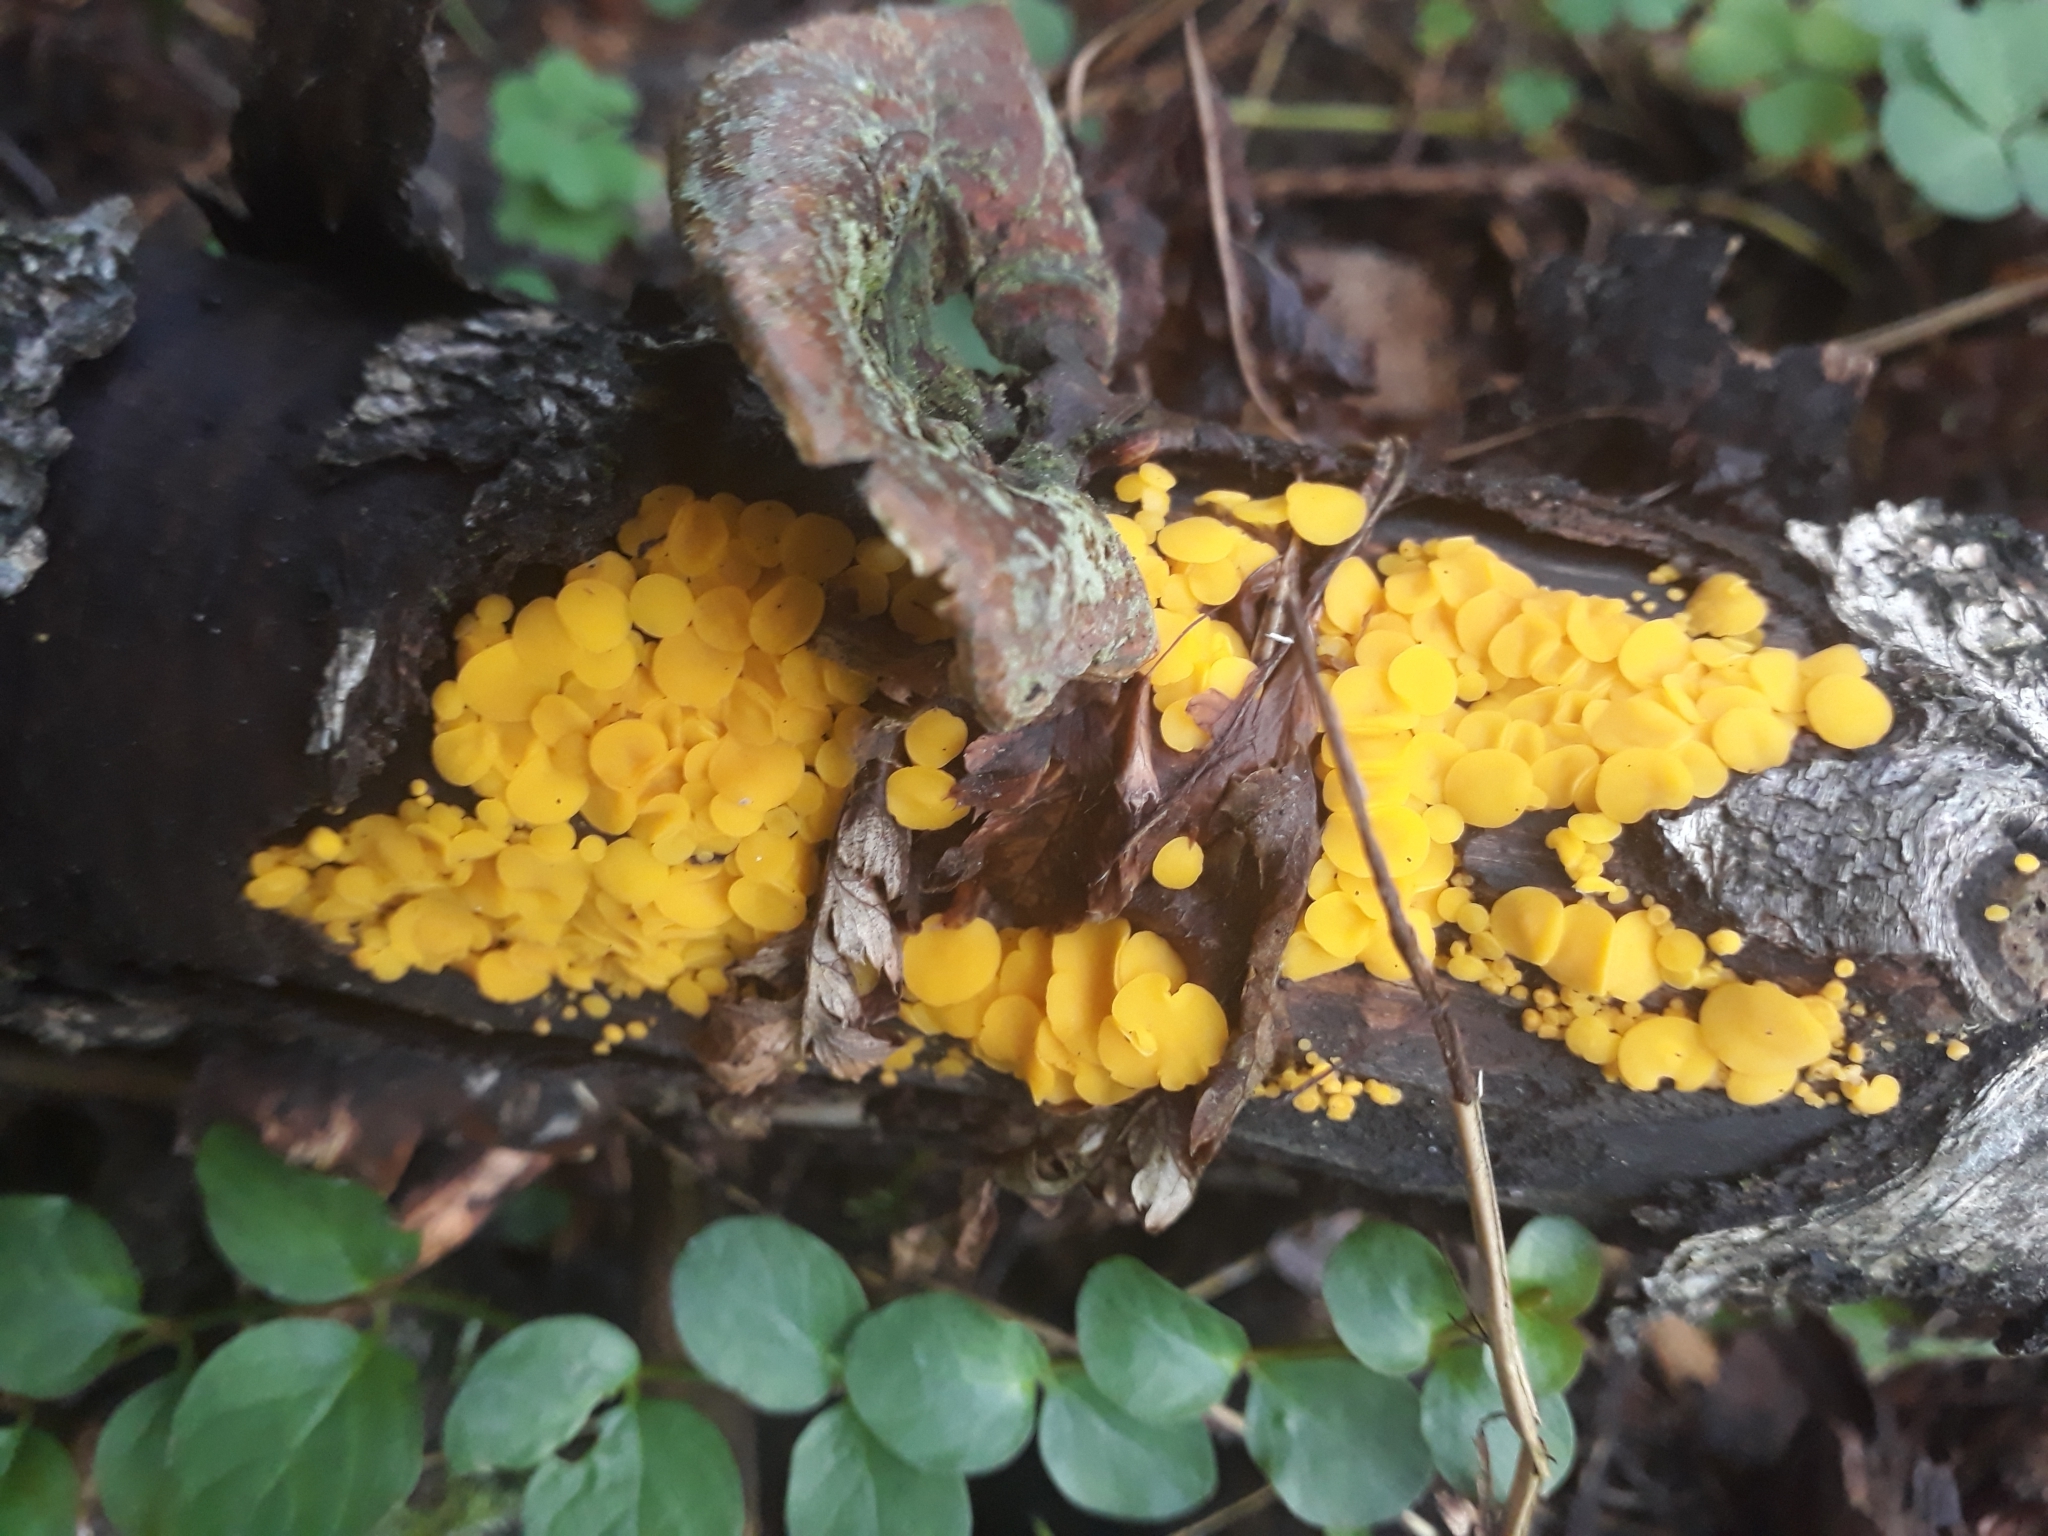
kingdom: Fungi
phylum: Ascomycota
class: Leotiomycetes
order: Helotiales
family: Pezizellaceae
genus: Calycina
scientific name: Calycina citrina
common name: Yellow fairy cups
